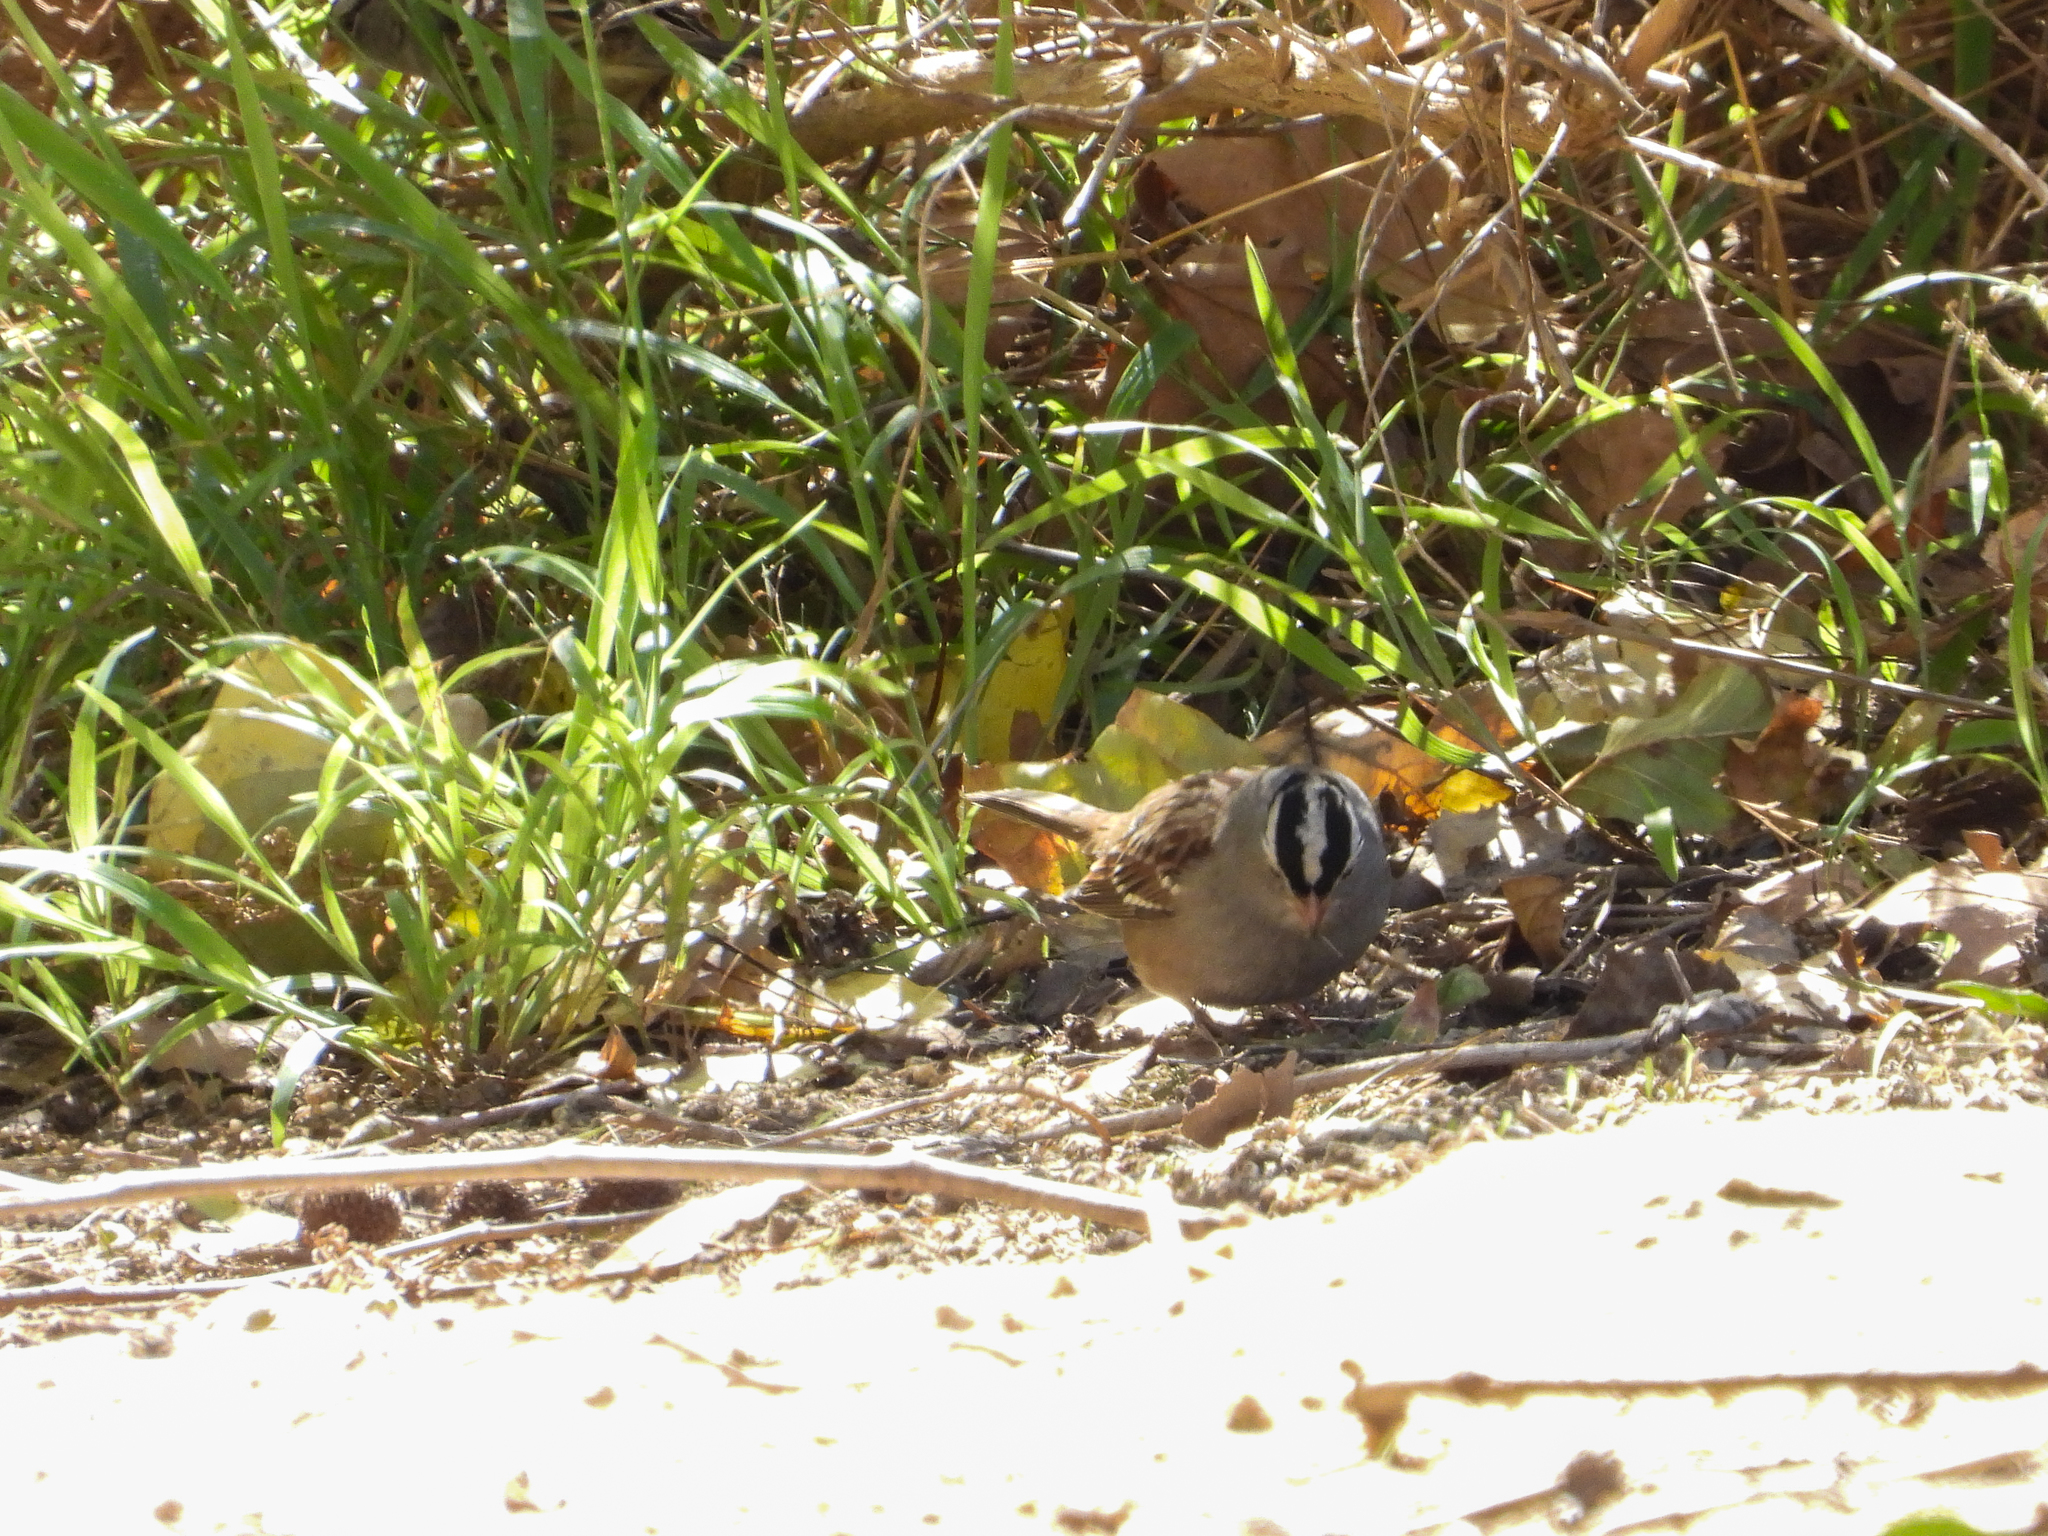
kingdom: Animalia
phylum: Chordata
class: Aves
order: Passeriformes
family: Passerellidae
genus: Zonotrichia
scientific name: Zonotrichia leucophrys
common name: White-crowned sparrow
